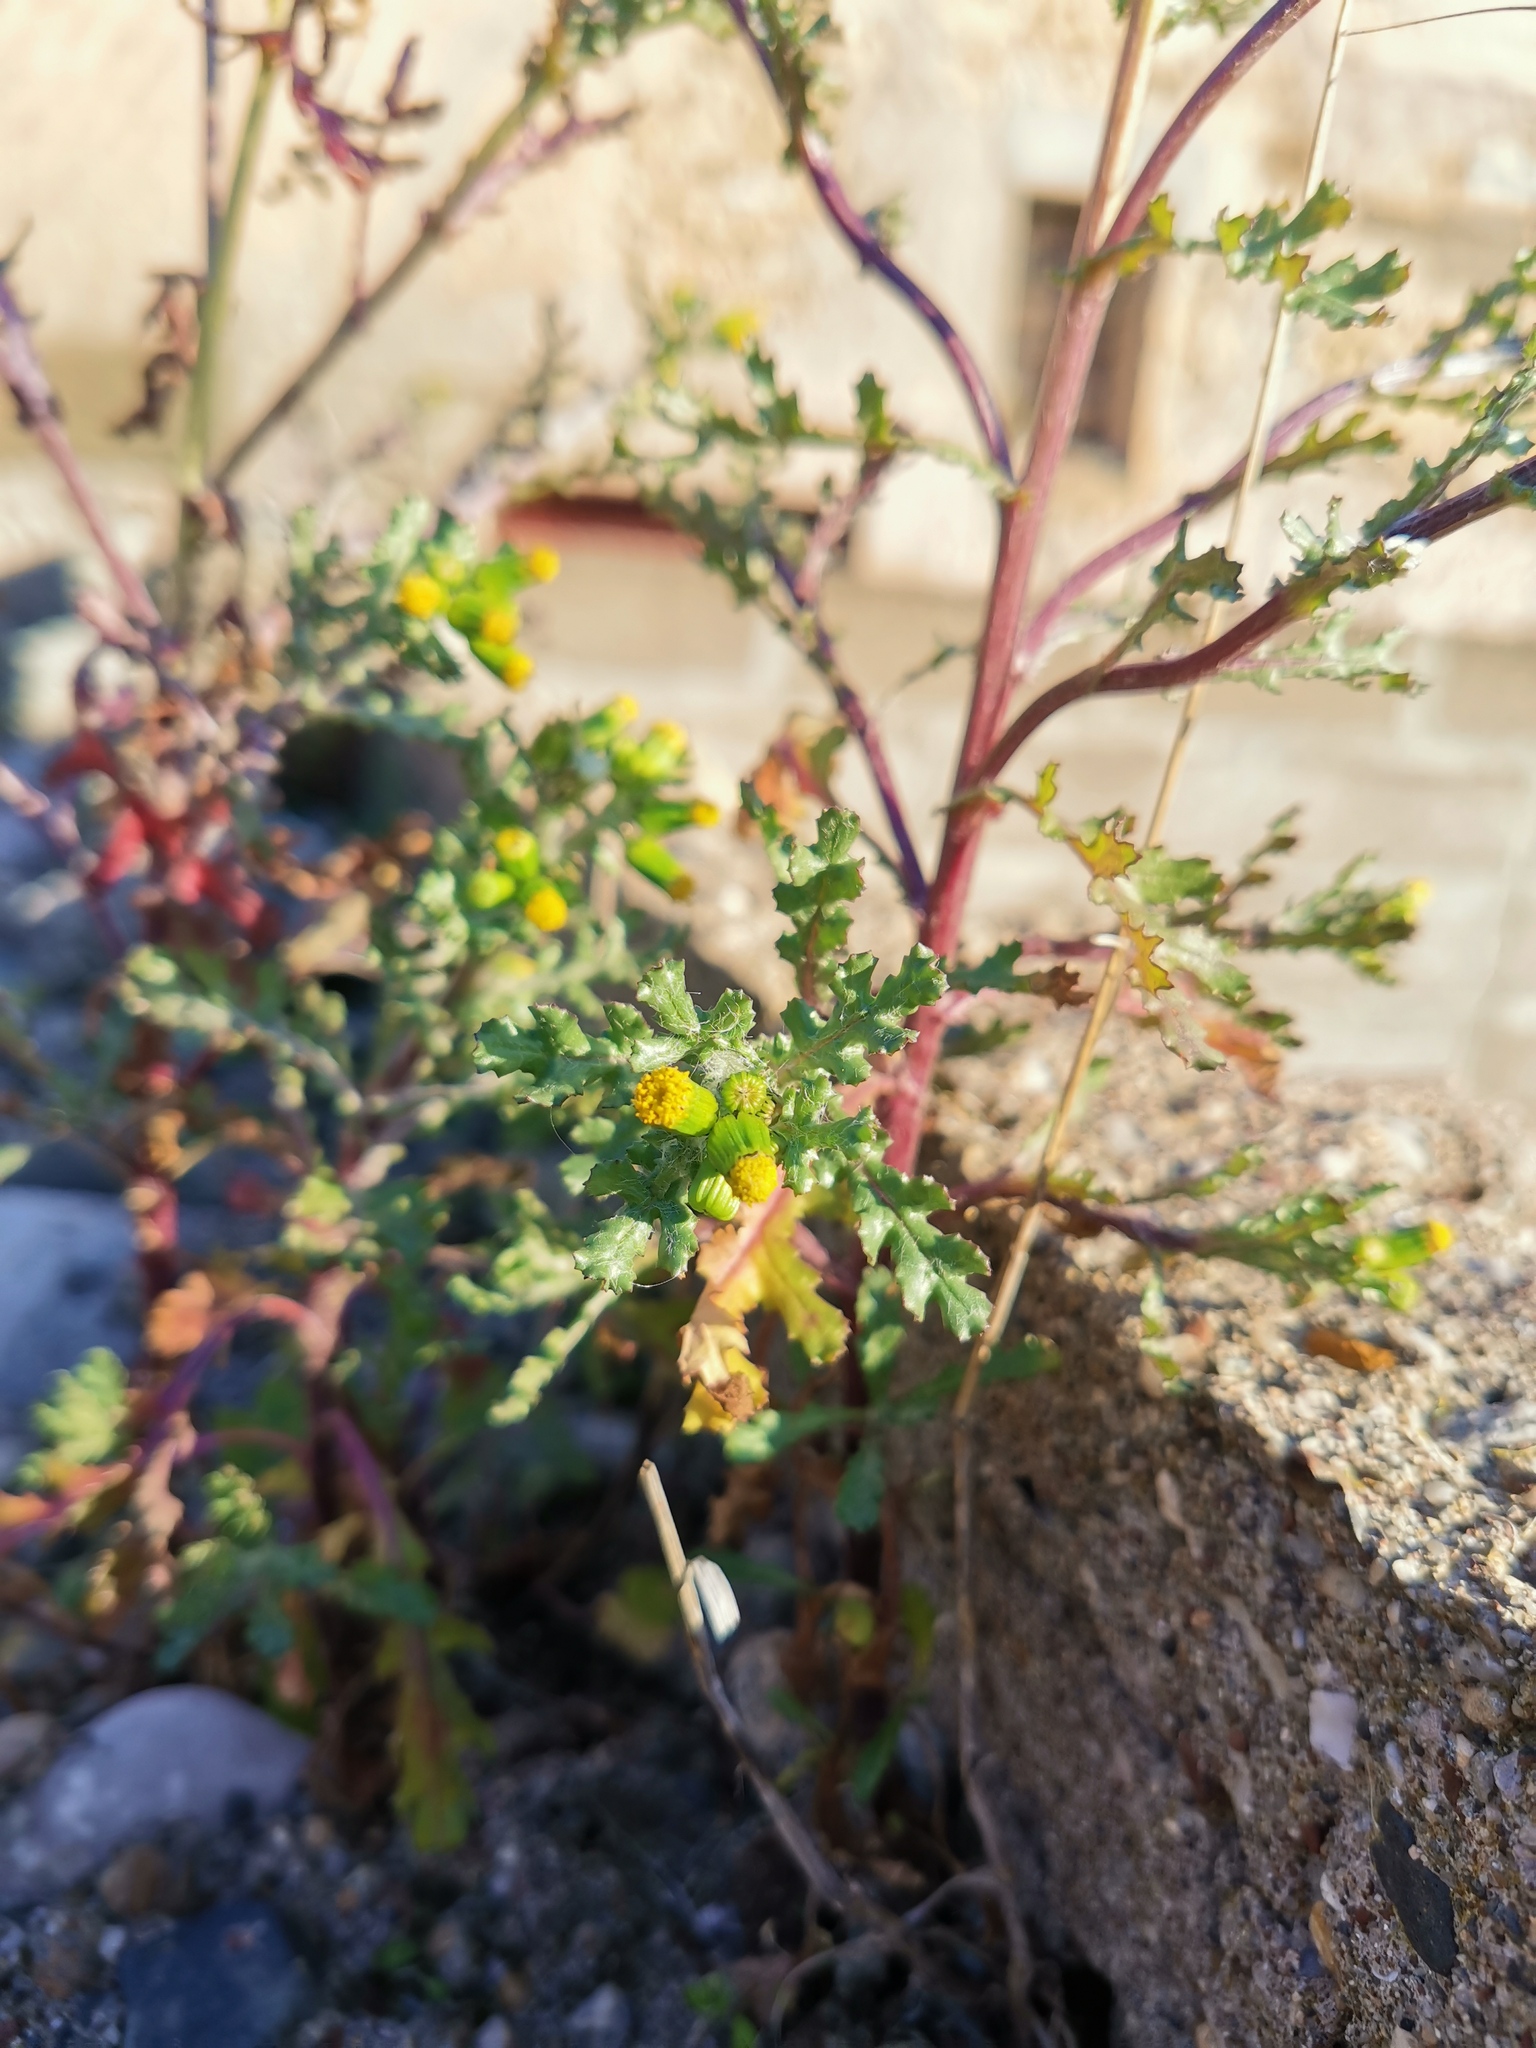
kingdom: Plantae
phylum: Tracheophyta
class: Magnoliopsida
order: Asterales
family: Asteraceae
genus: Senecio
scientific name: Senecio vulgaris
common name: Old-man-in-the-spring
